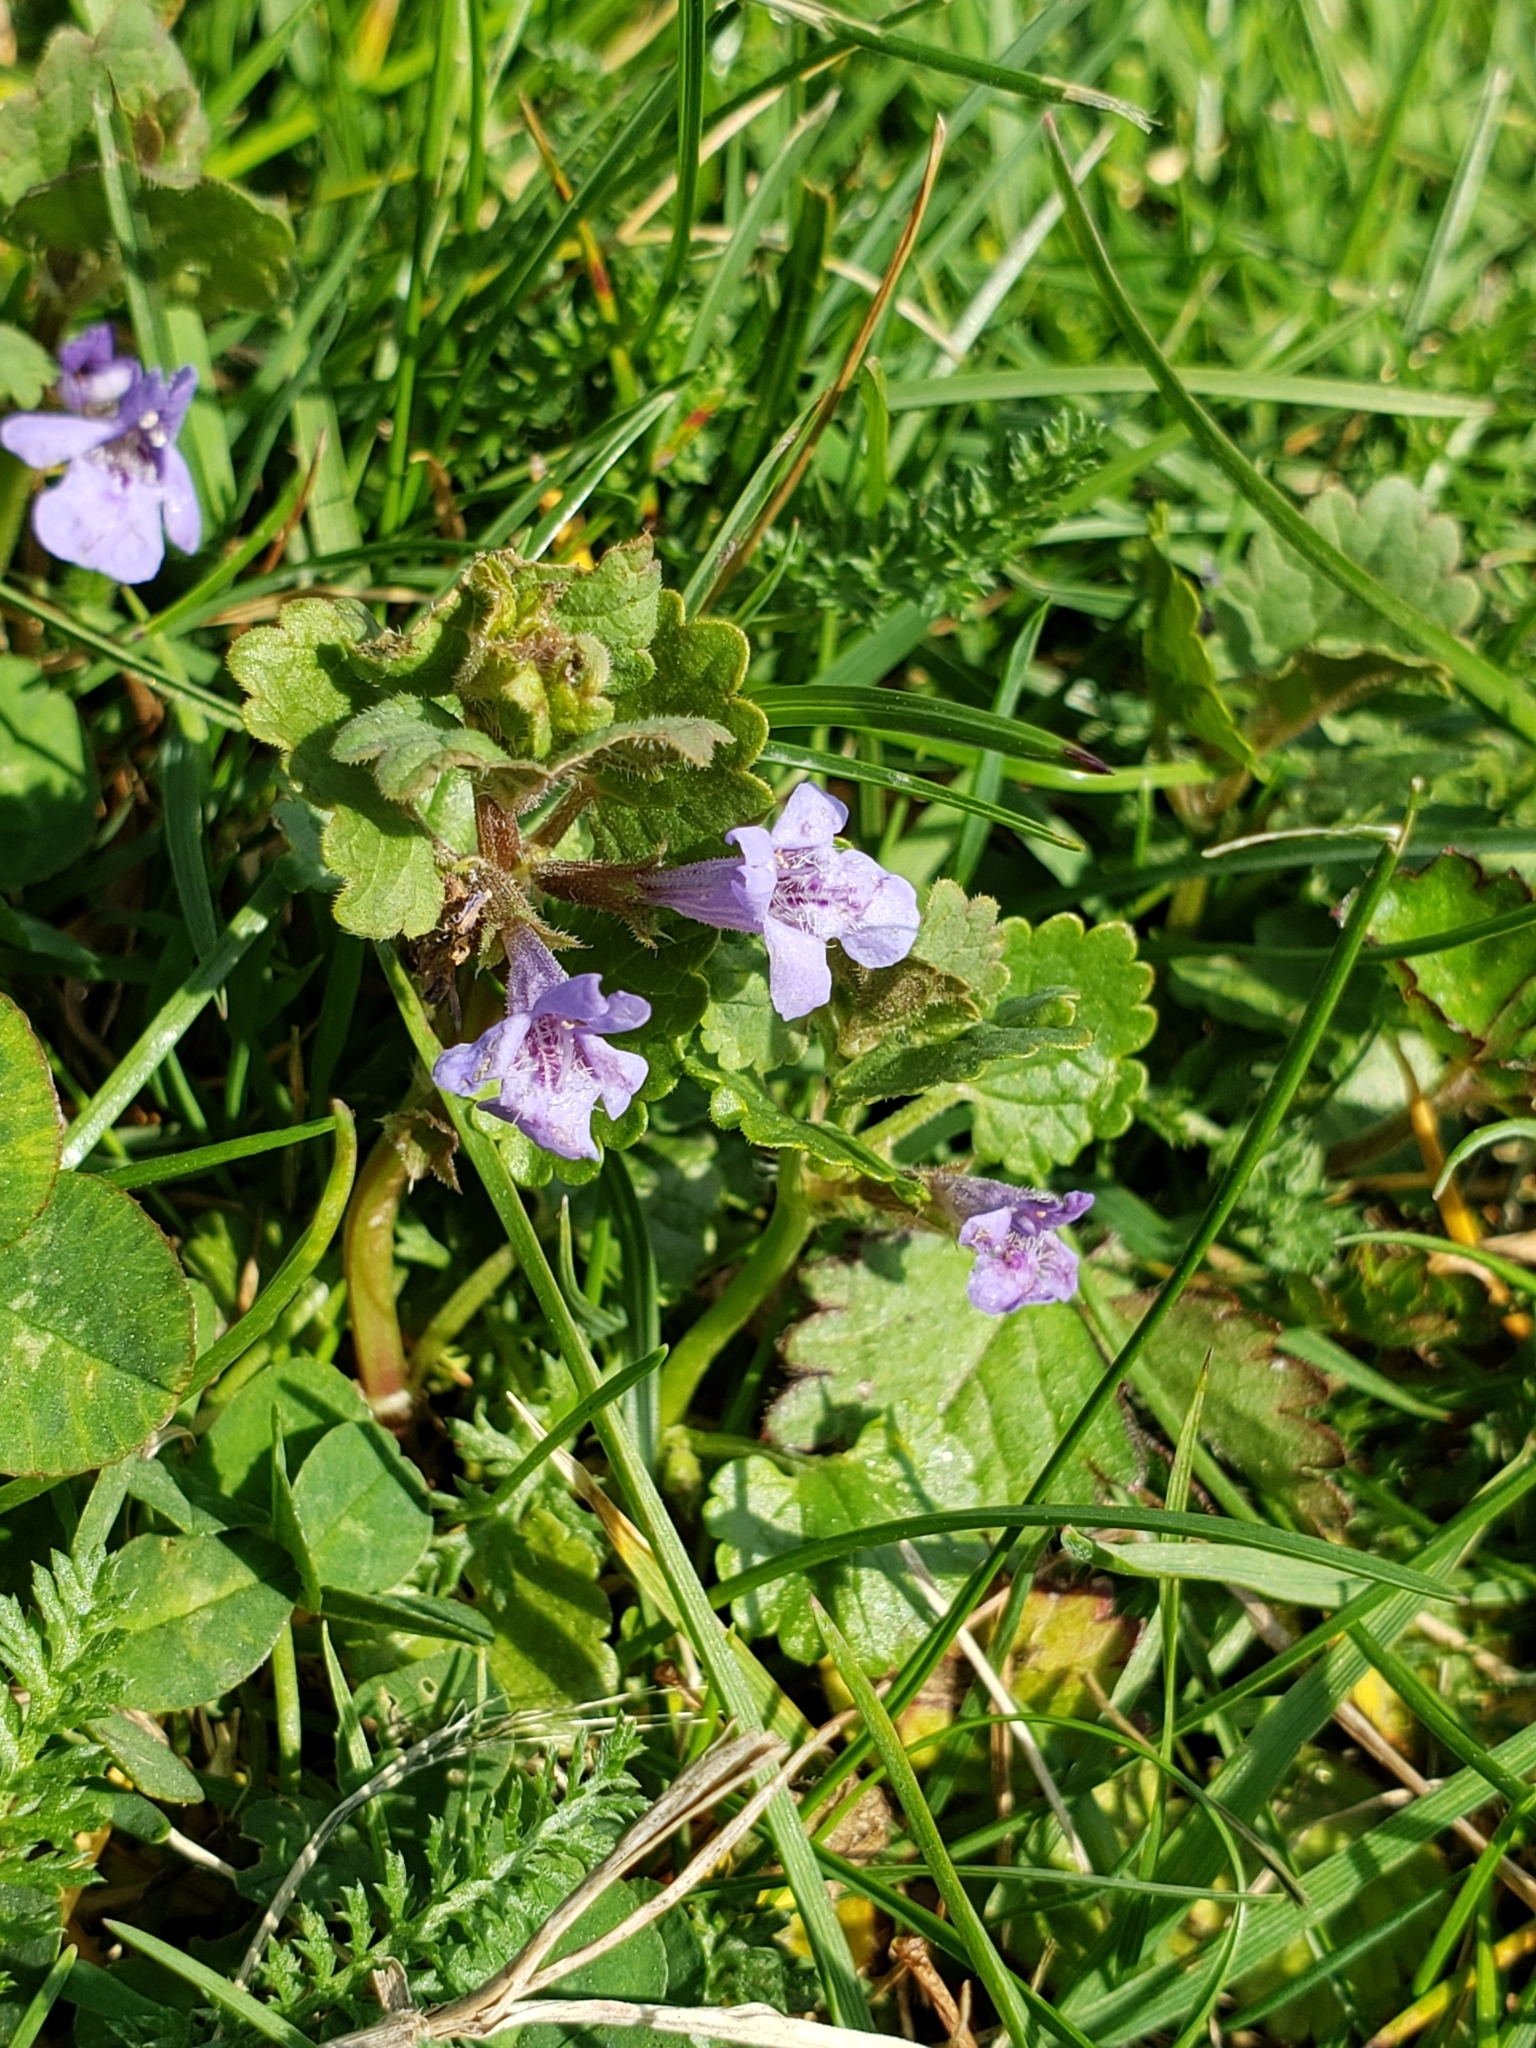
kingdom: Plantae
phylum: Tracheophyta
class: Magnoliopsida
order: Lamiales
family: Lamiaceae
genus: Glechoma
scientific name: Glechoma hederacea
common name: Ground ivy
